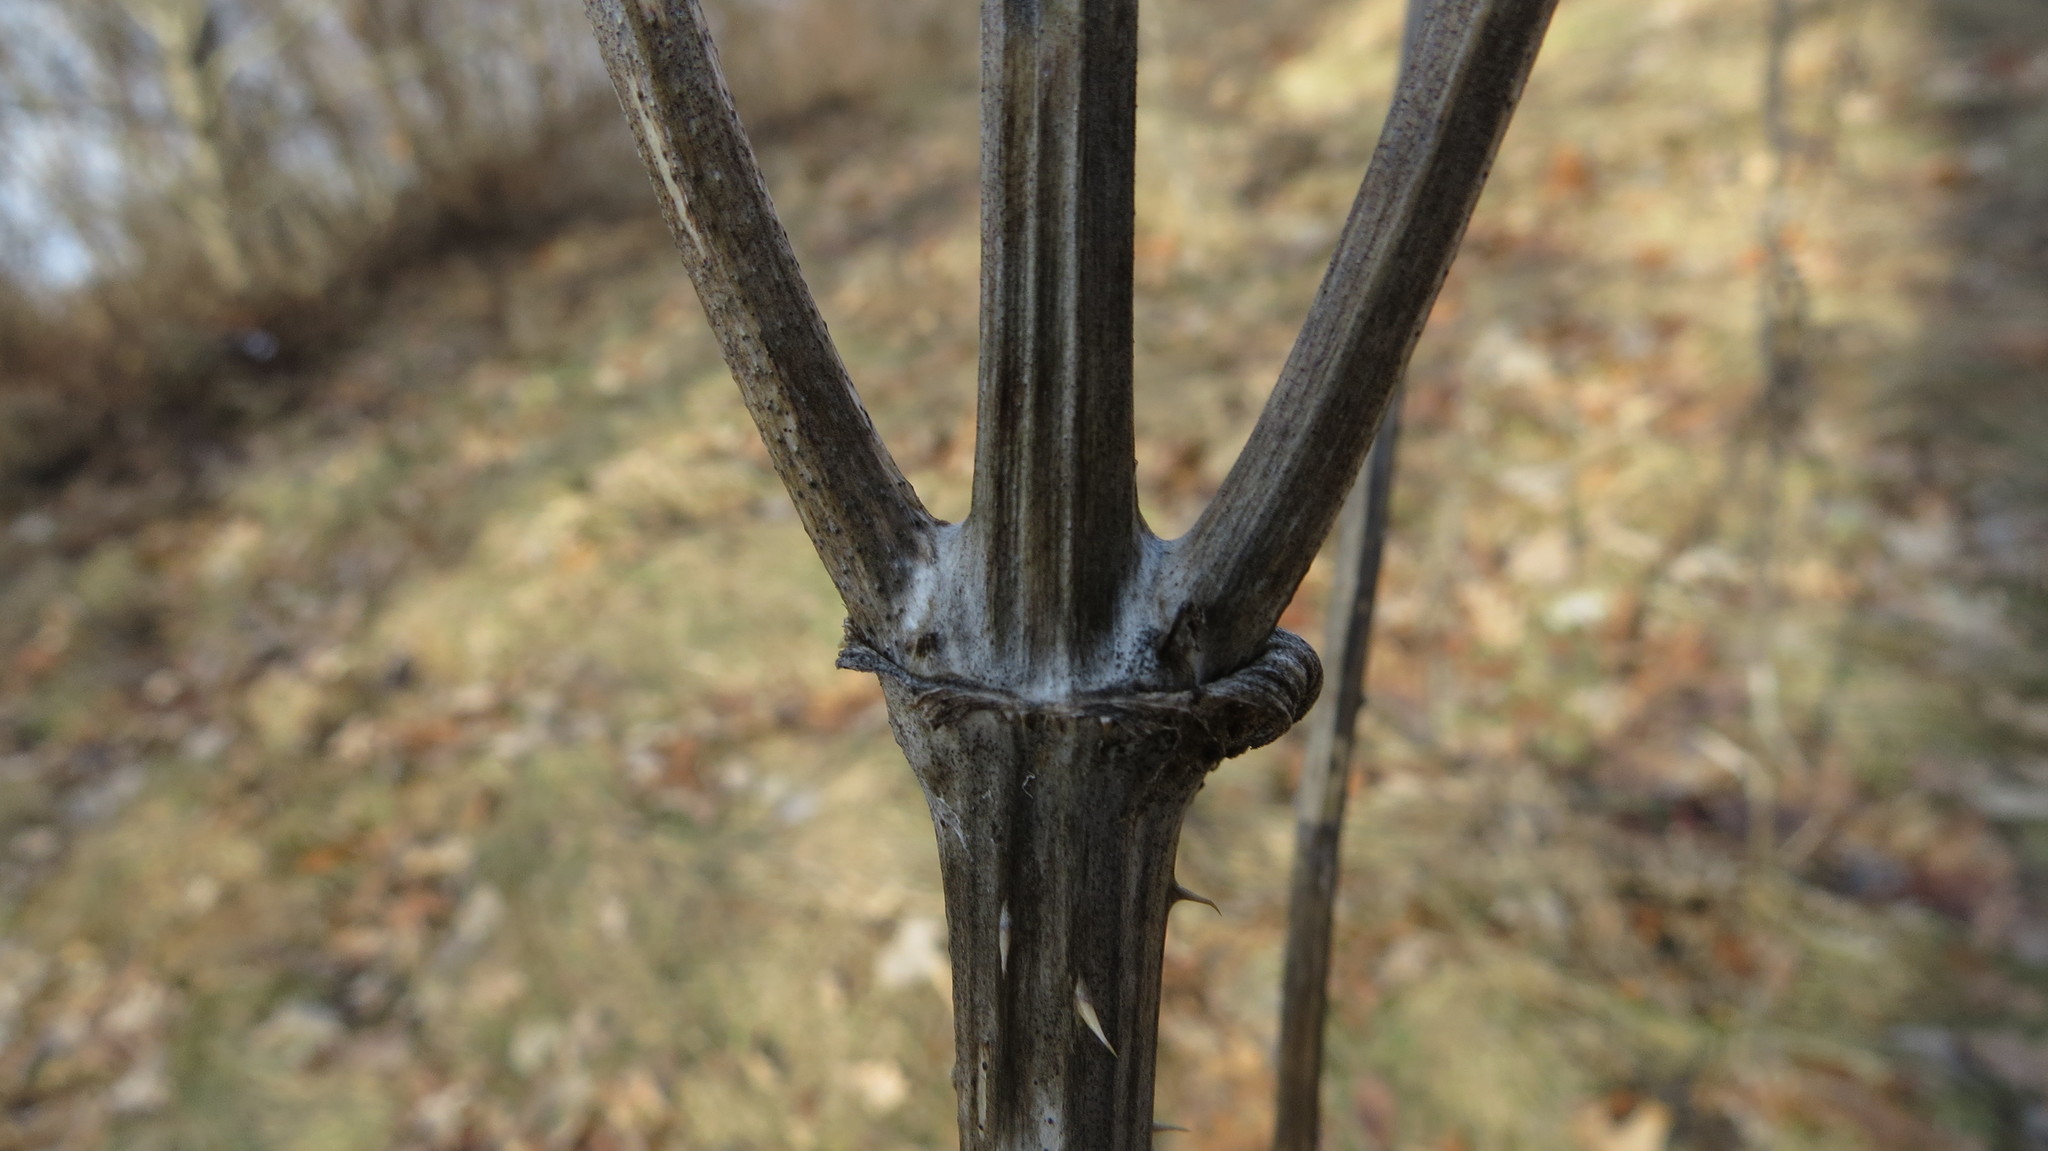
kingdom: Plantae
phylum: Tracheophyta
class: Magnoliopsida
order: Dipsacales
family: Caprifoliaceae
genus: Dipsacus
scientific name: Dipsacus fullonum
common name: Teasel
